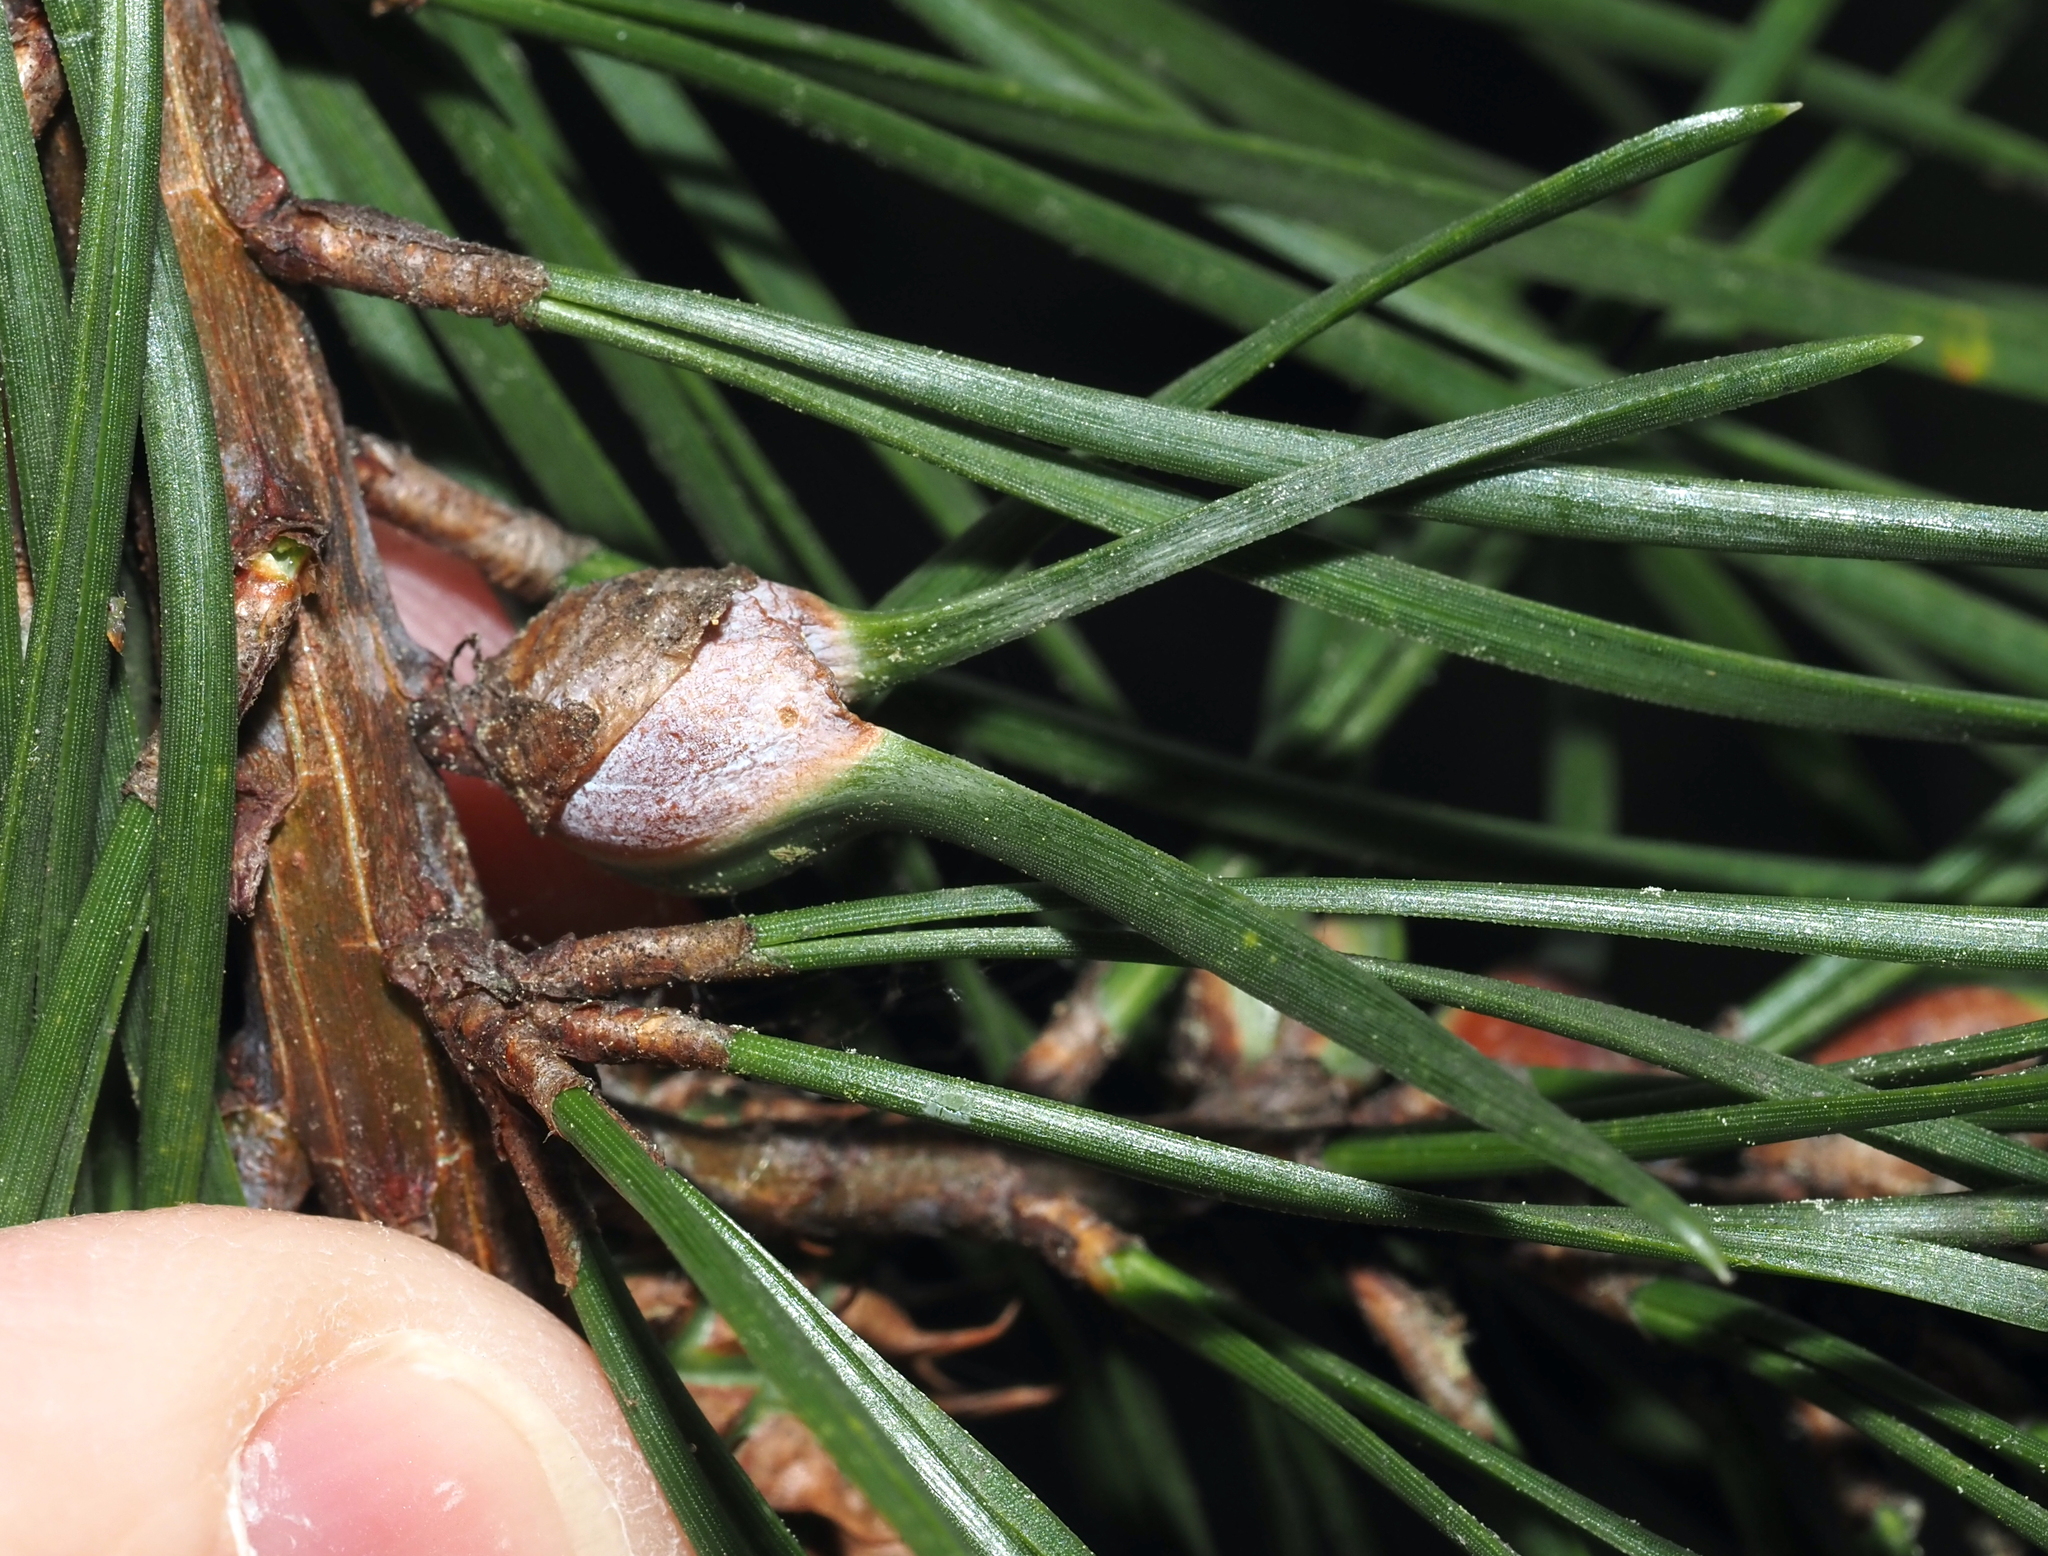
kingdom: Animalia
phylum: Arthropoda
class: Insecta
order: Diptera
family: Cecidomyiidae
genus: Thecodiplosis
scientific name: Thecodiplosis brachynteroides
